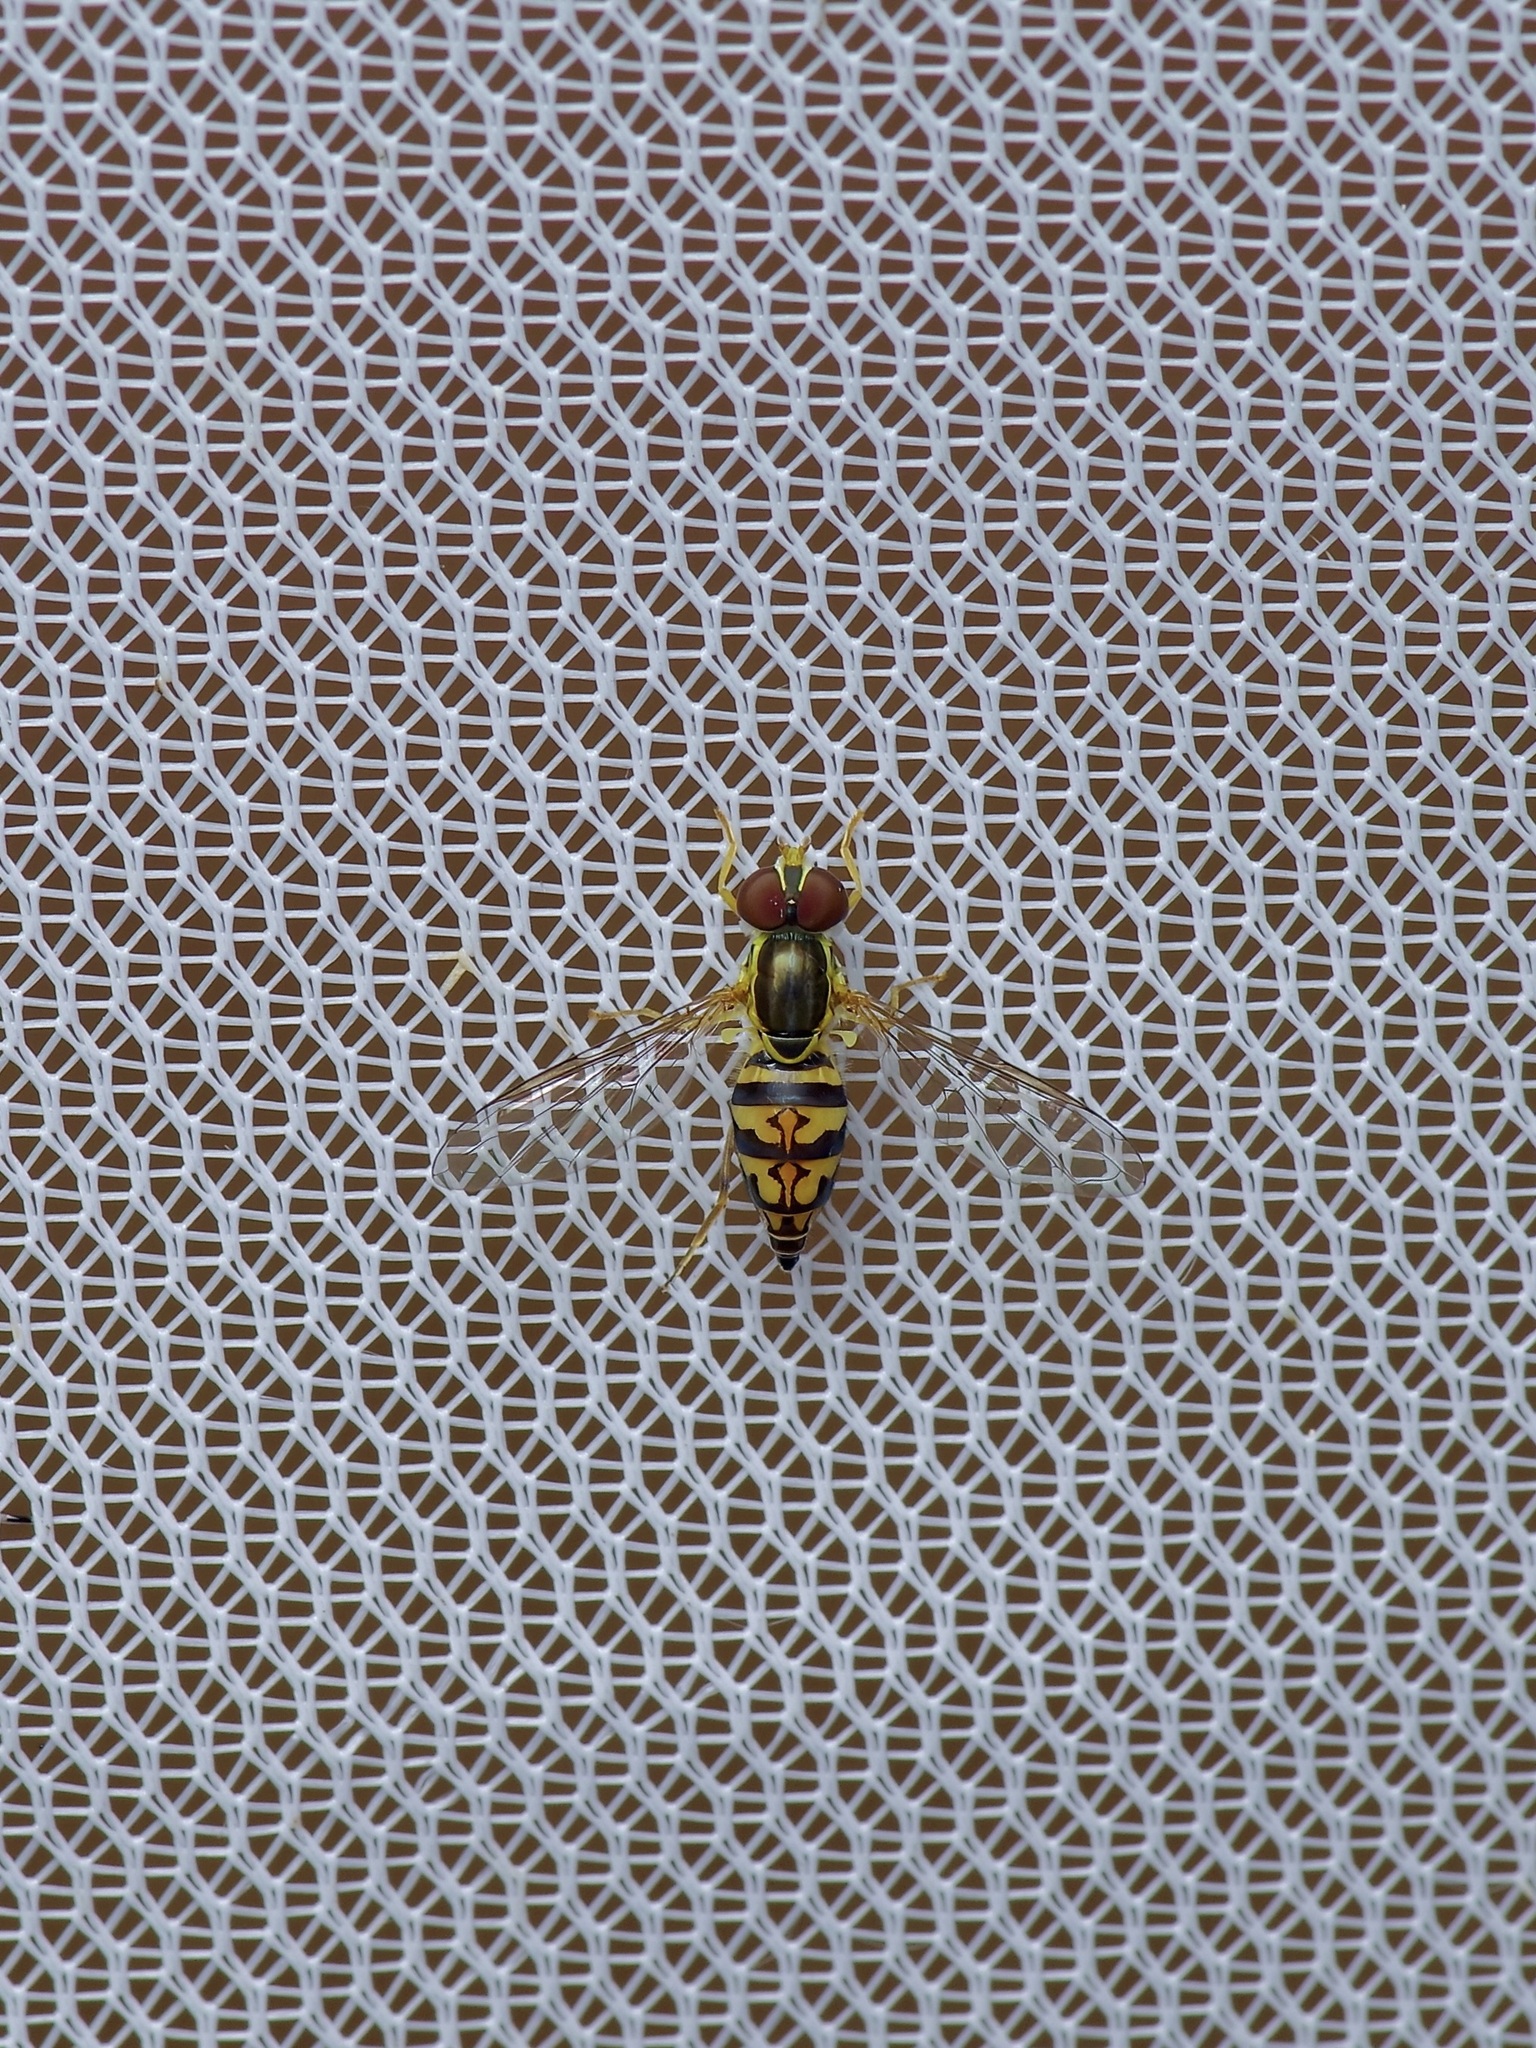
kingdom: Animalia
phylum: Arthropoda
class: Insecta
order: Diptera
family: Syrphidae
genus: Toxomerus
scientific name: Toxomerus geminatus
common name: Eastern calligrapher
